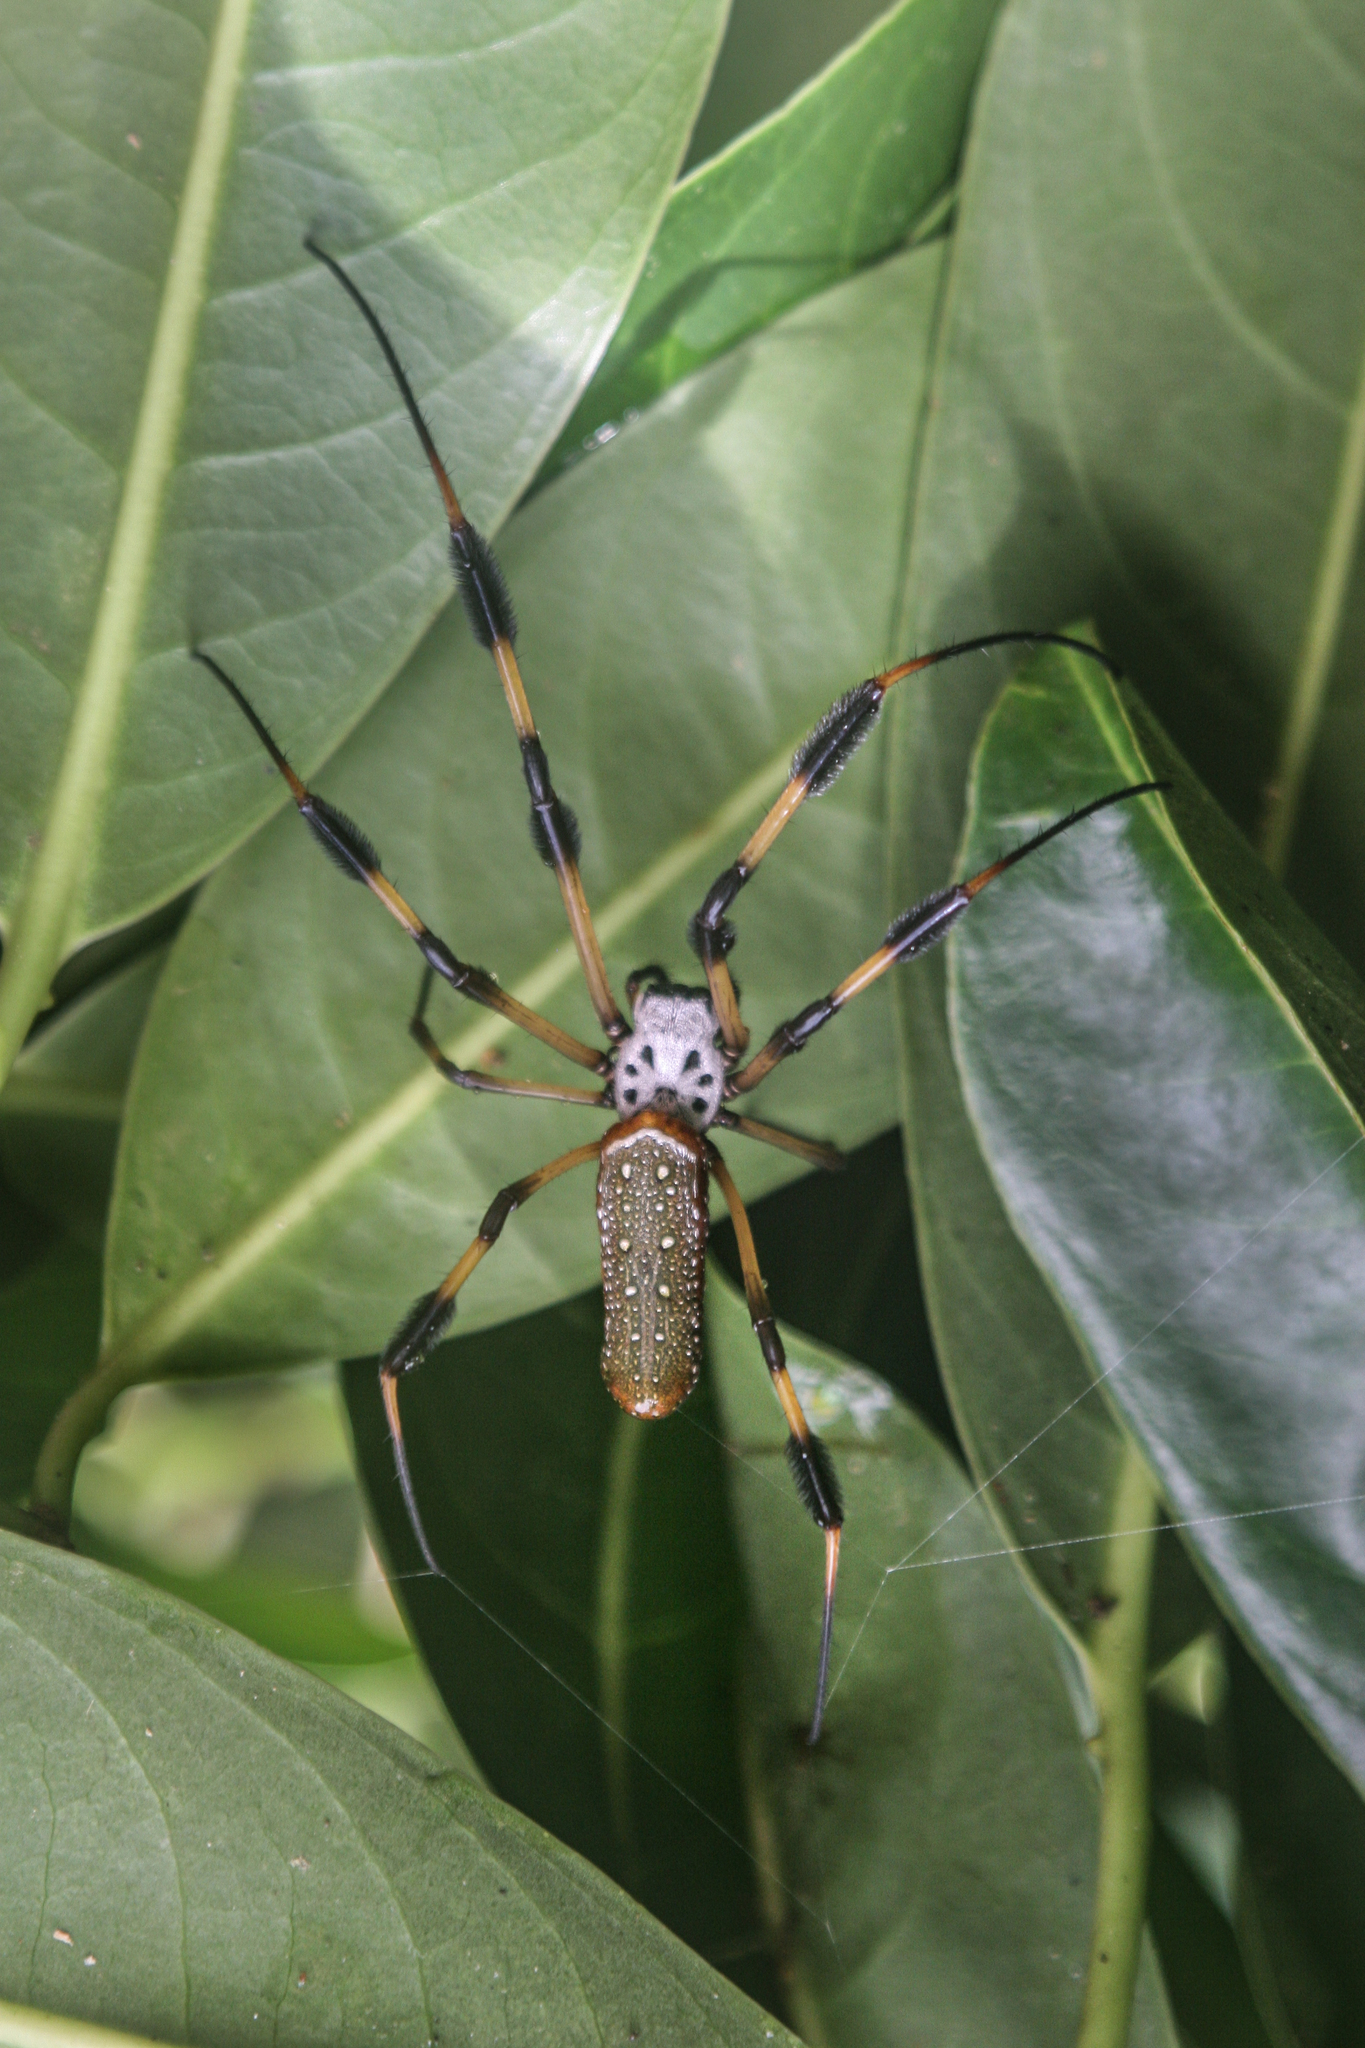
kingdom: Animalia
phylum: Arthropoda
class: Arachnida
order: Araneae
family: Araneidae
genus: Trichonephila
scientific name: Trichonephila clavipes
